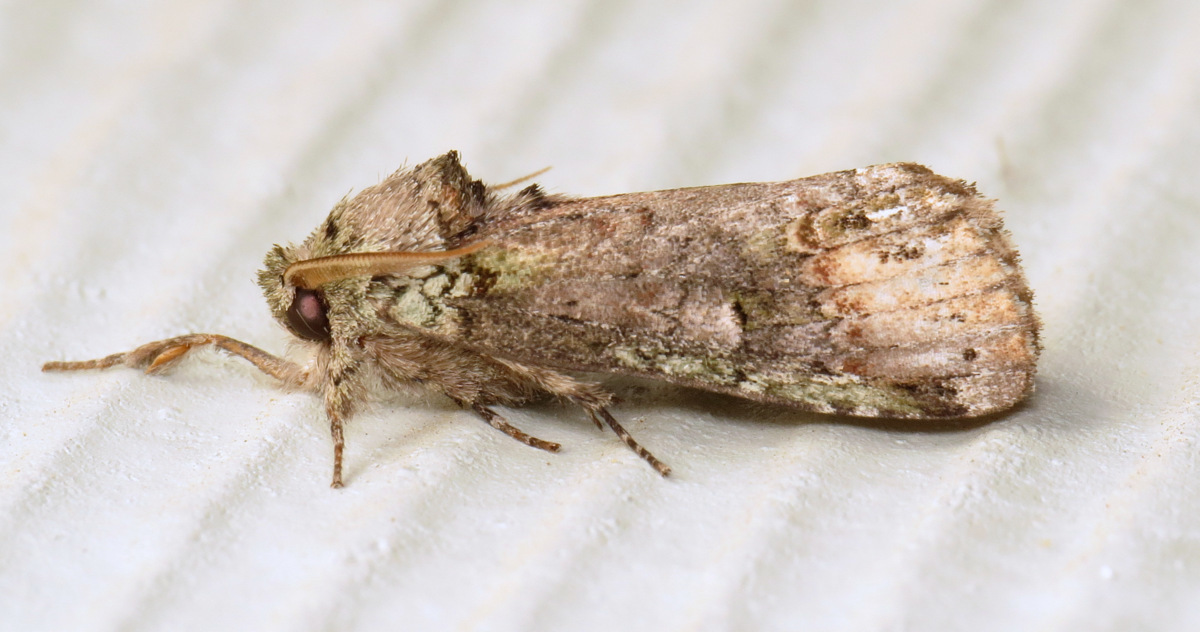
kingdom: Animalia
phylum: Arthropoda
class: Insecta
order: Lepidoptera
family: Notodontidae
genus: Schizura
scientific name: Schizura
